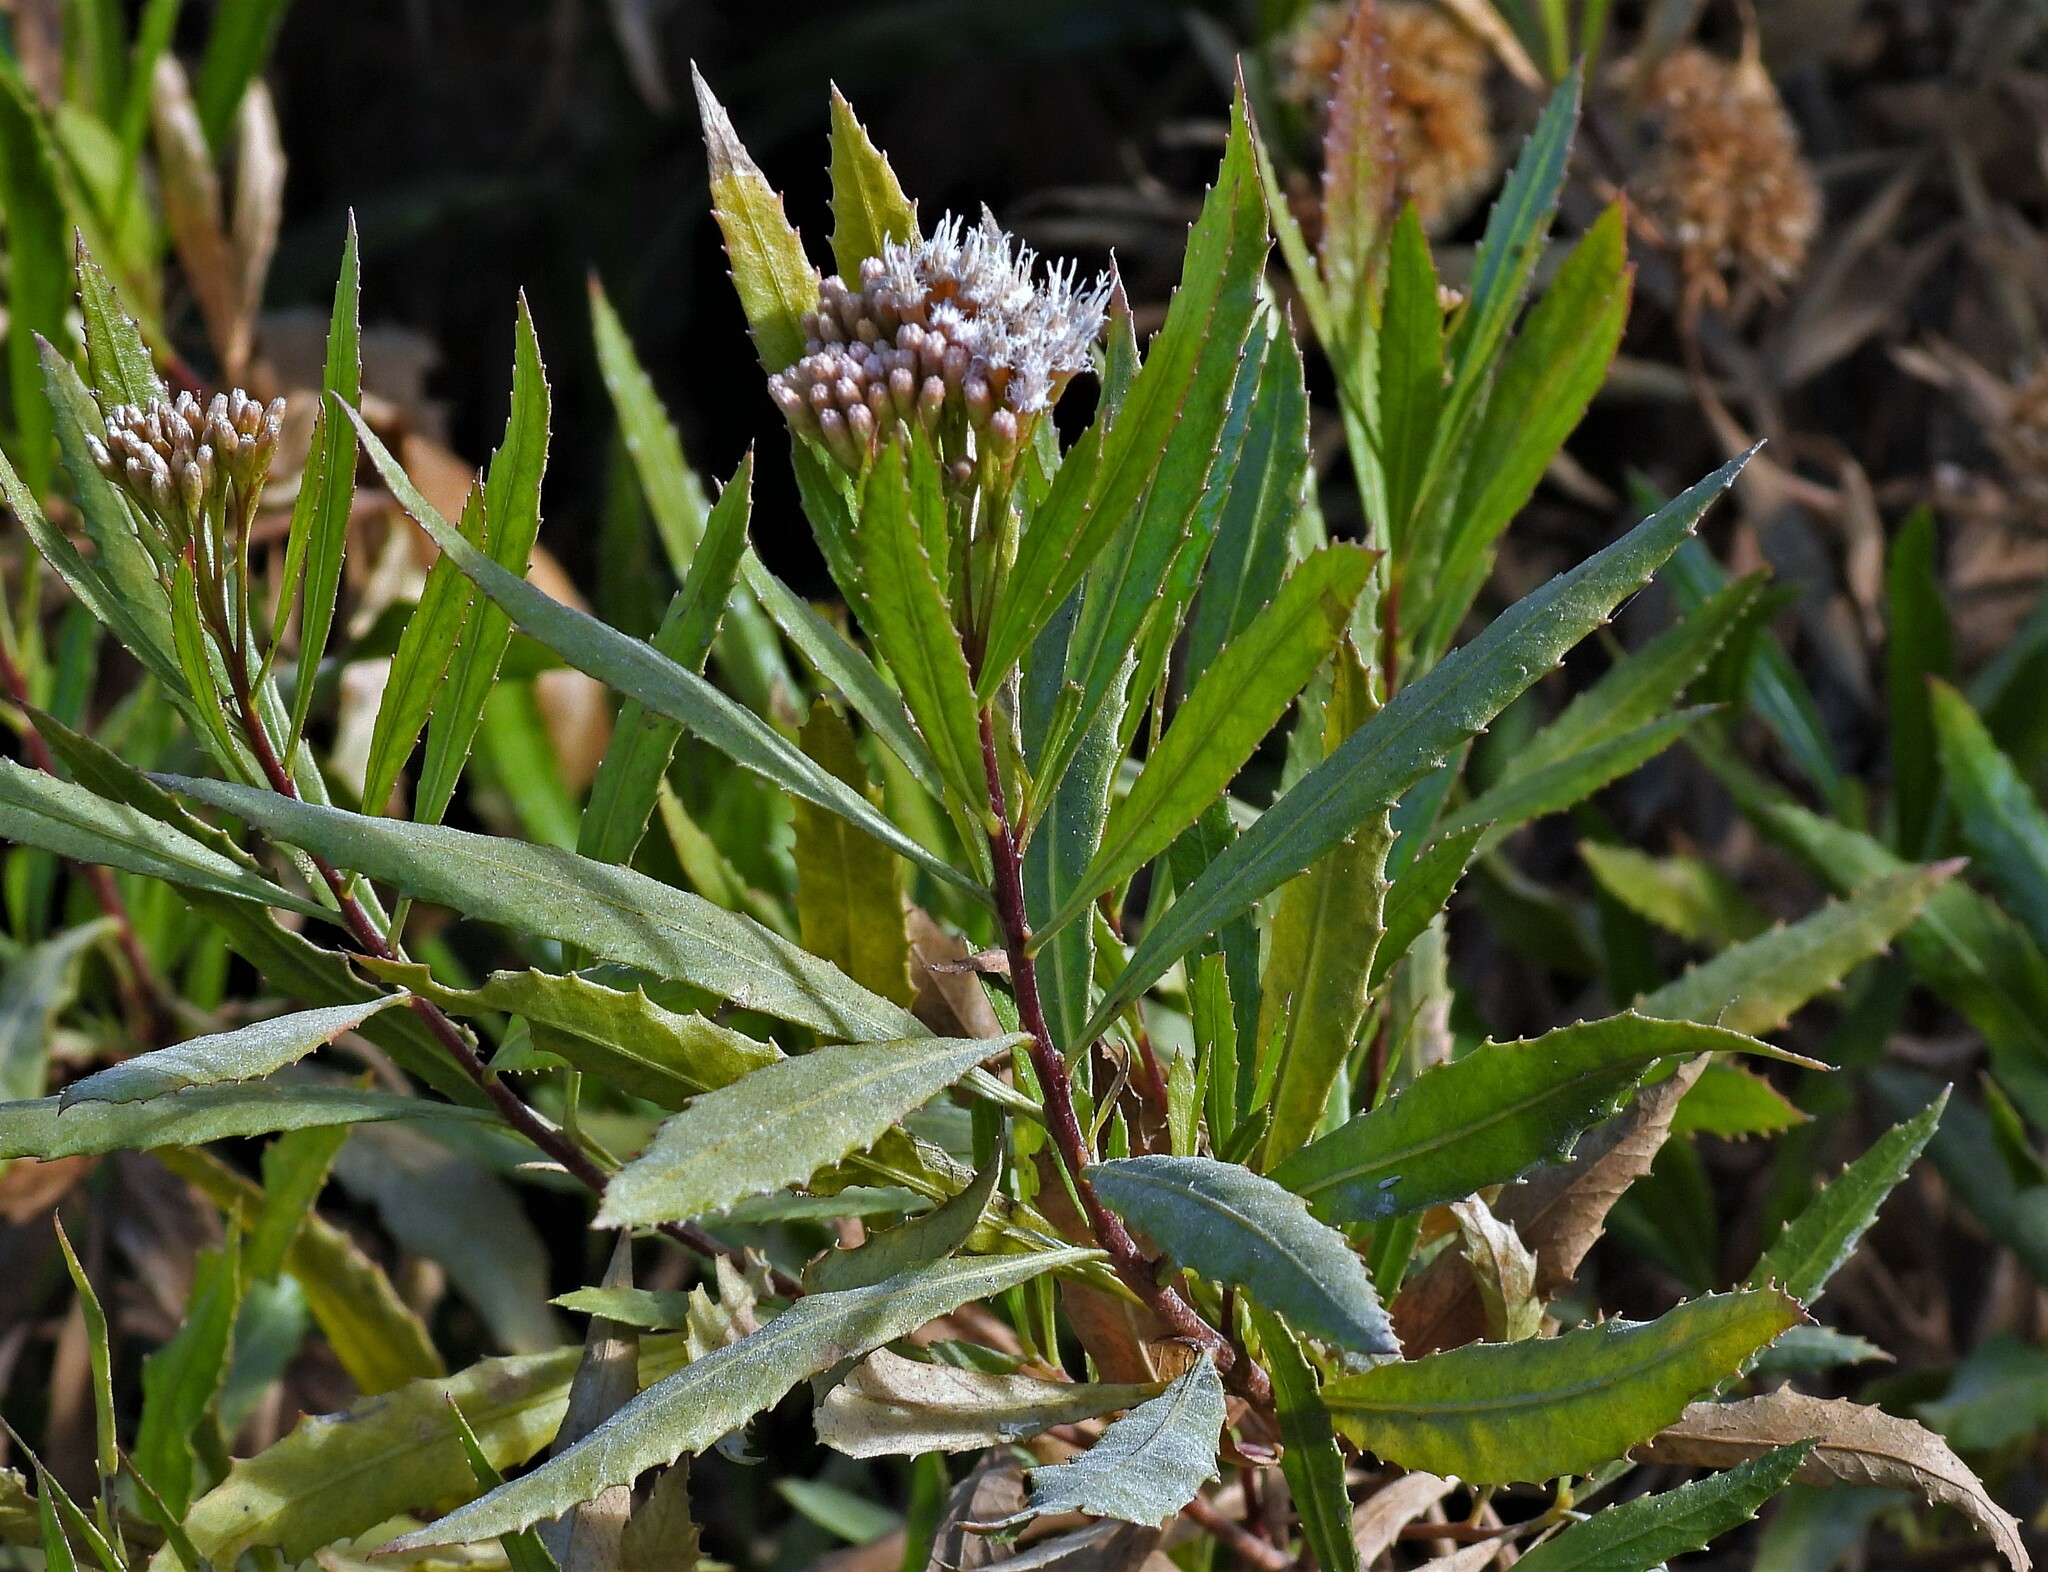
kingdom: Plantae
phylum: Tracheophyta
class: Magnoliopsida
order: Asterales
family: Asteraceae
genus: Tessaria
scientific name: Tessaria dodonaeifolia
